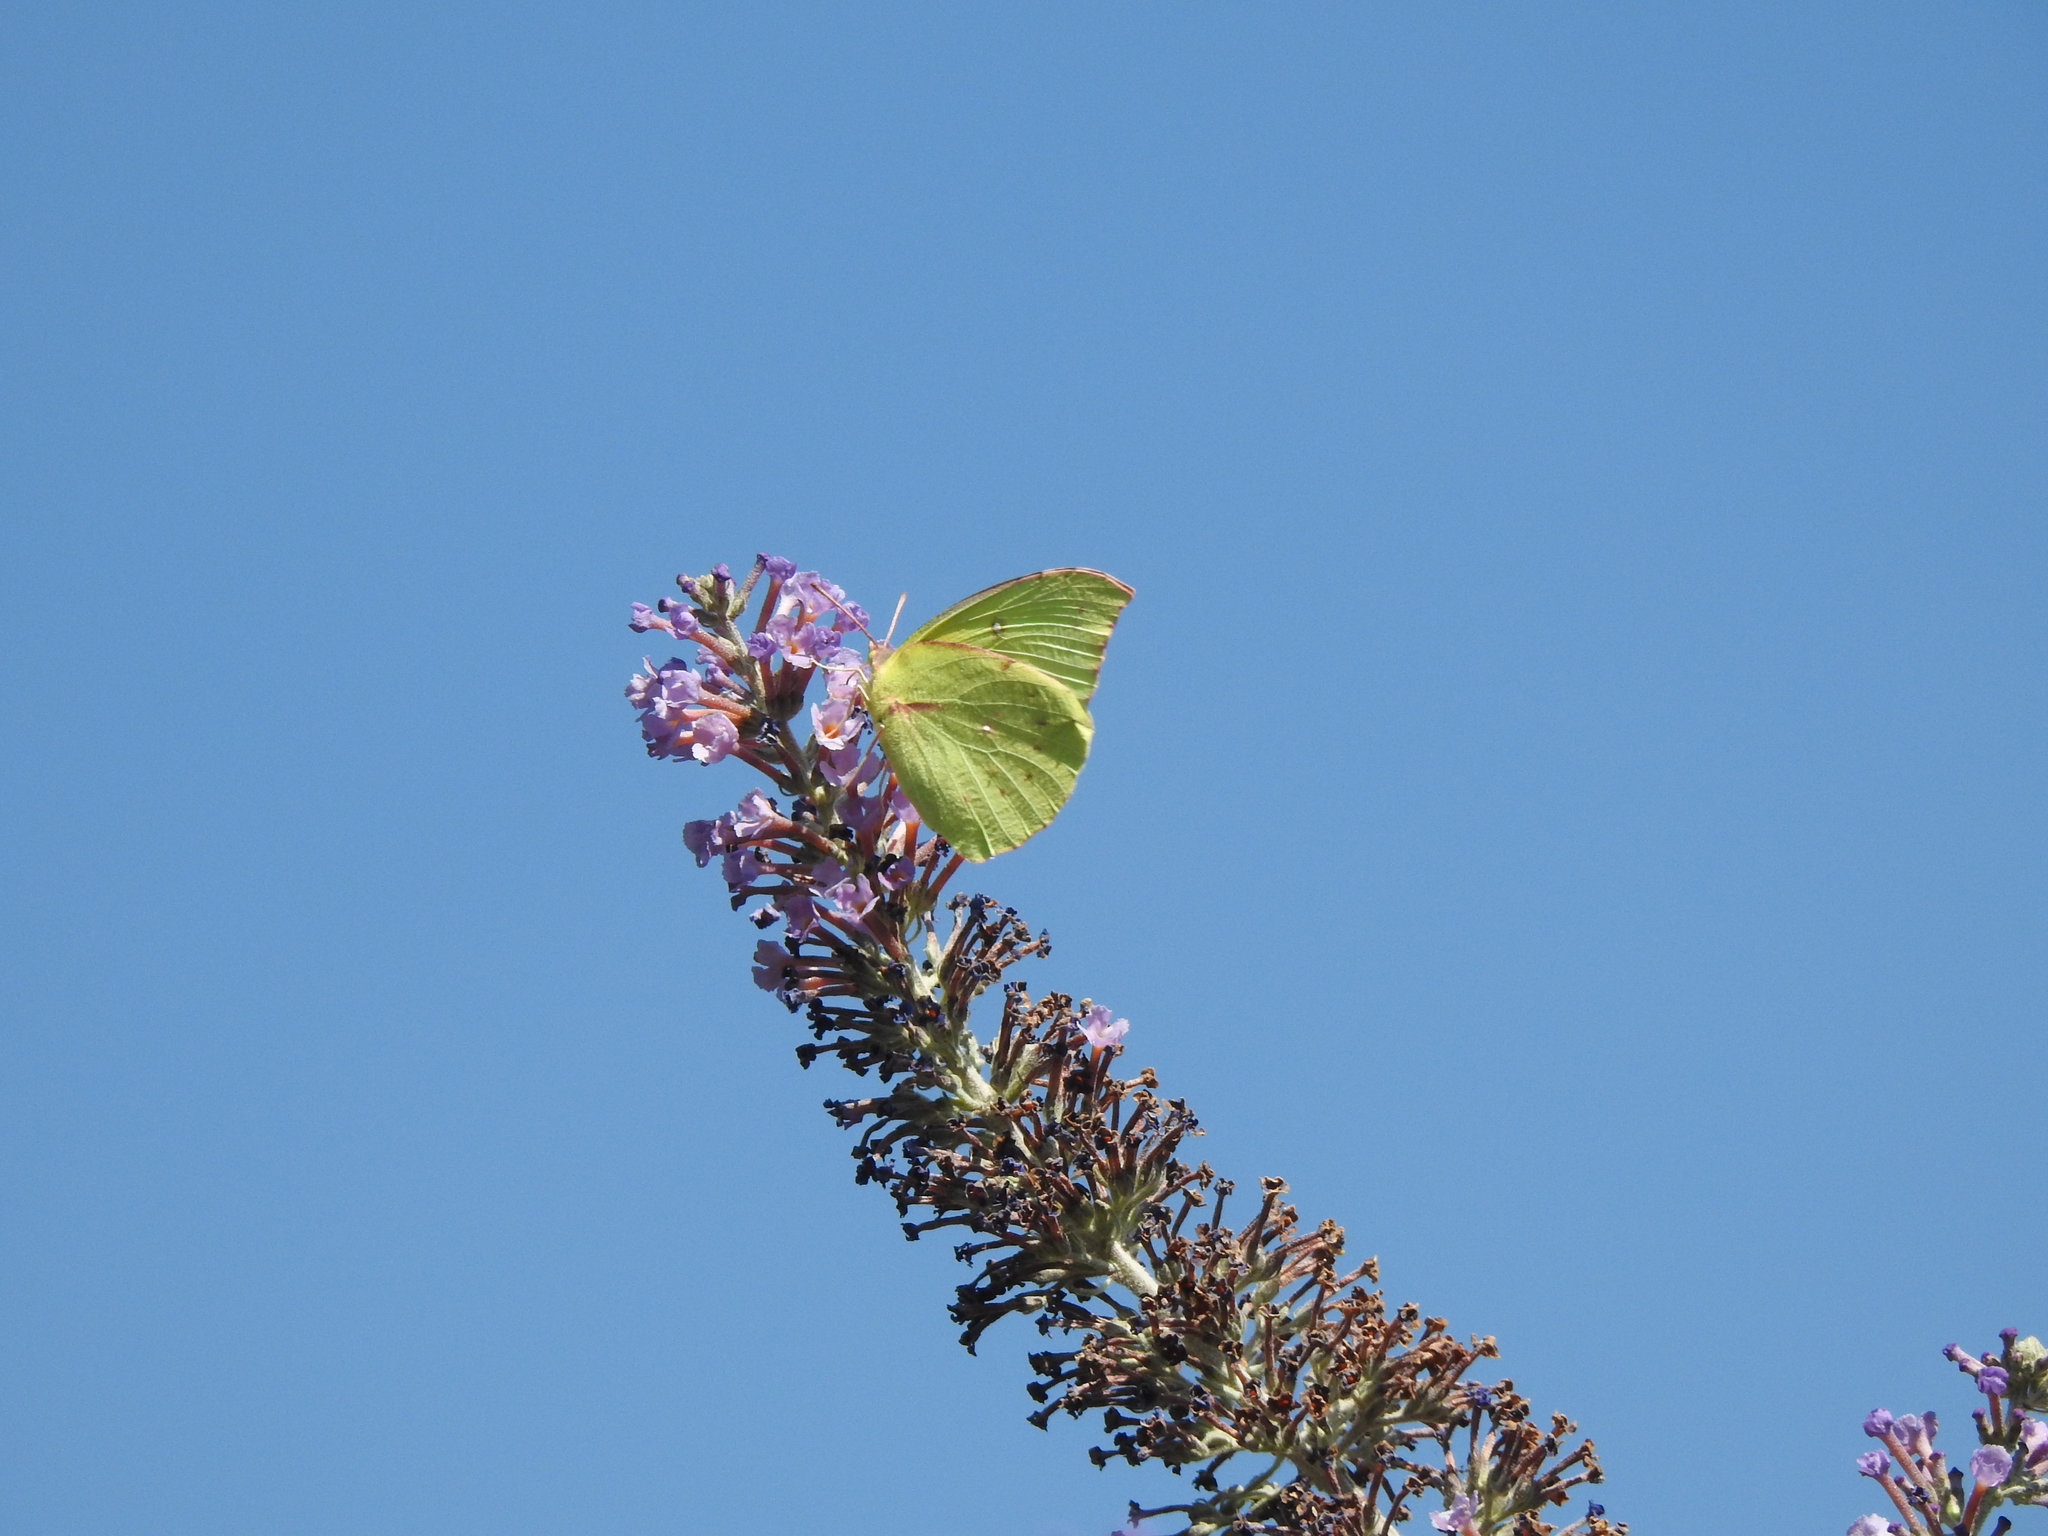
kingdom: Animalia
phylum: Arthropoda
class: Insecta
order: Lepidoptera
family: Pieridae
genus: Zerene
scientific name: Zerene eurydice
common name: California dogface
